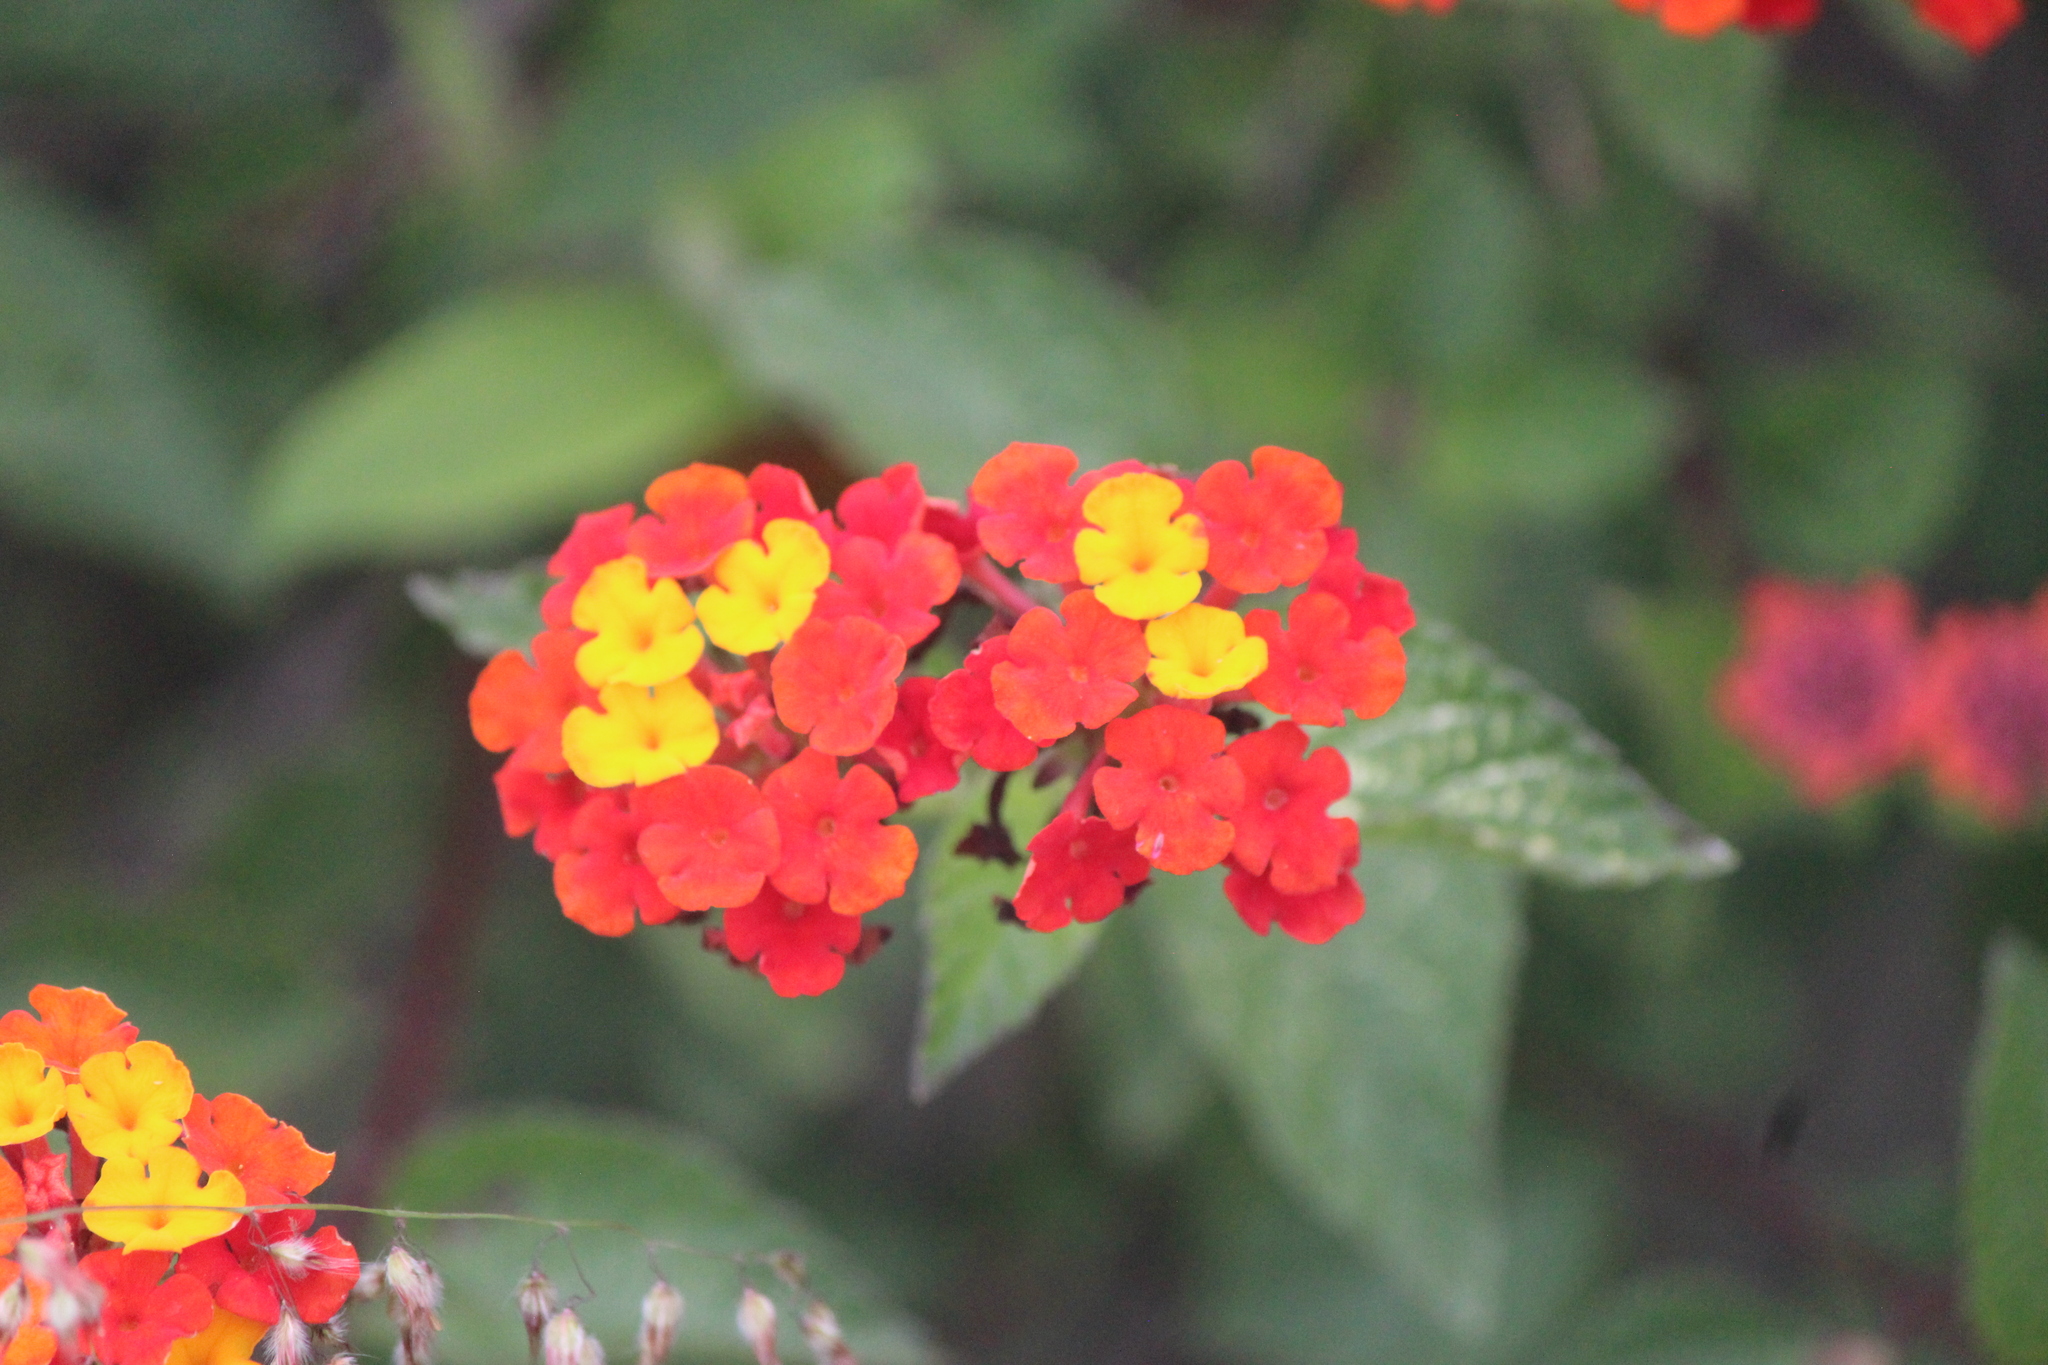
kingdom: Plantae
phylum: Tracheophyta
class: Magnoliopsida
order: Lamiales
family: Verbenaceae
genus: Lantana
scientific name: Lantana camara
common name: Lantana
